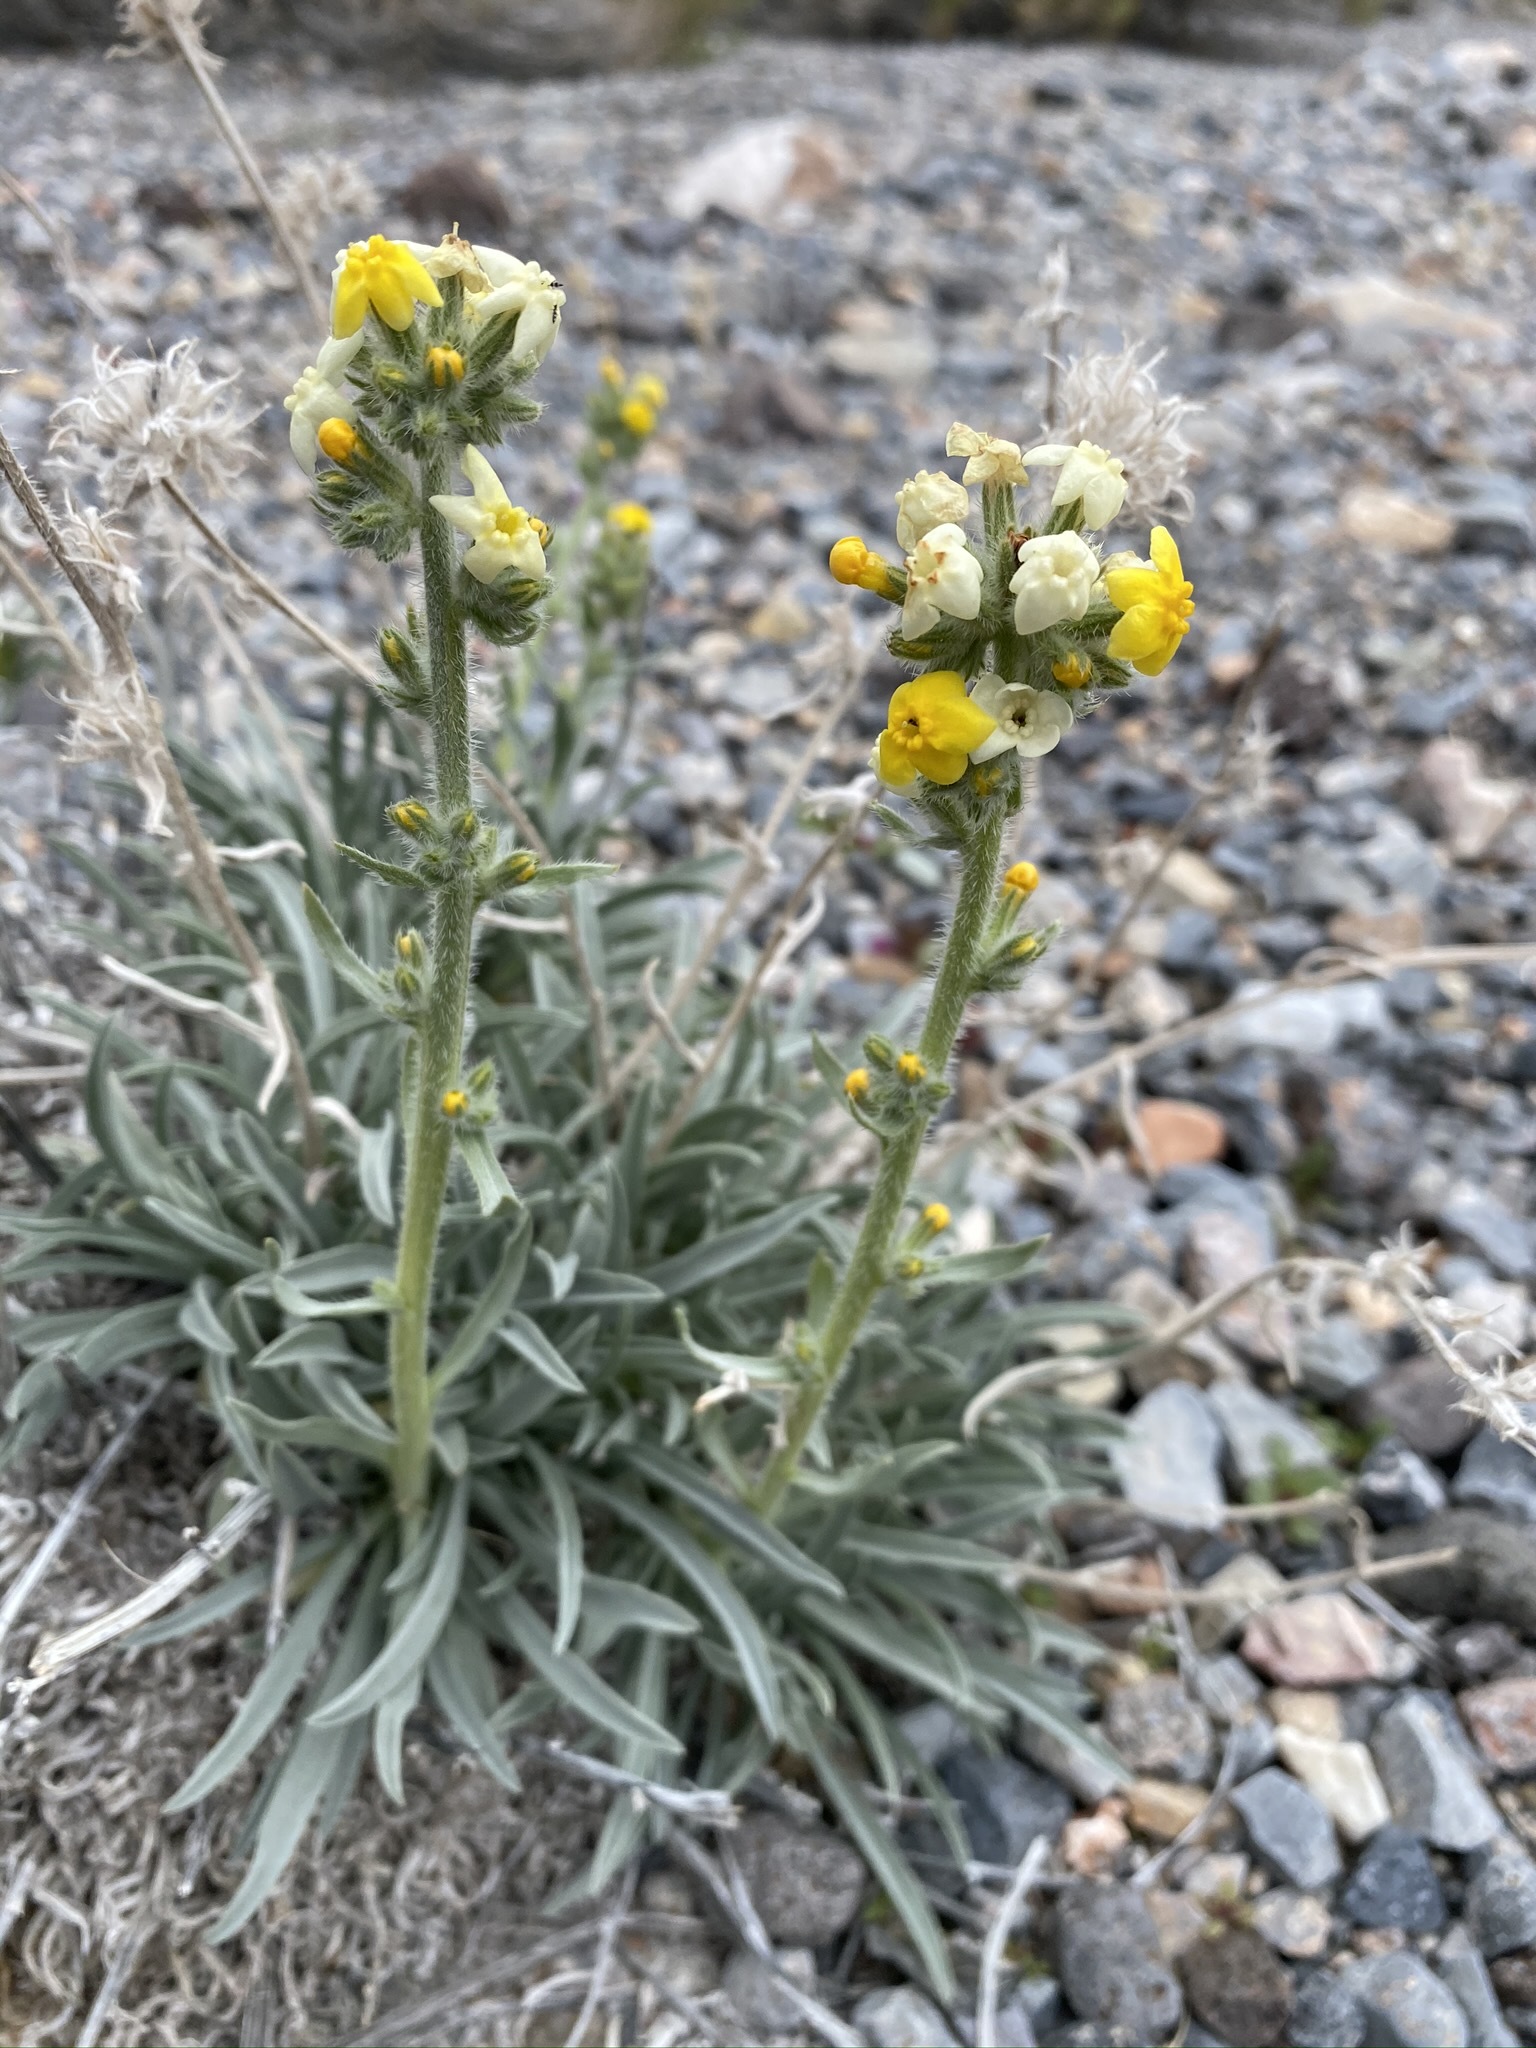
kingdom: Plantae
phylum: Tracheophyta
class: Magnoliopsida
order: Boraginales
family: Boraginaceae
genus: Oreocarya
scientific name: Oreocarya confertiflora
